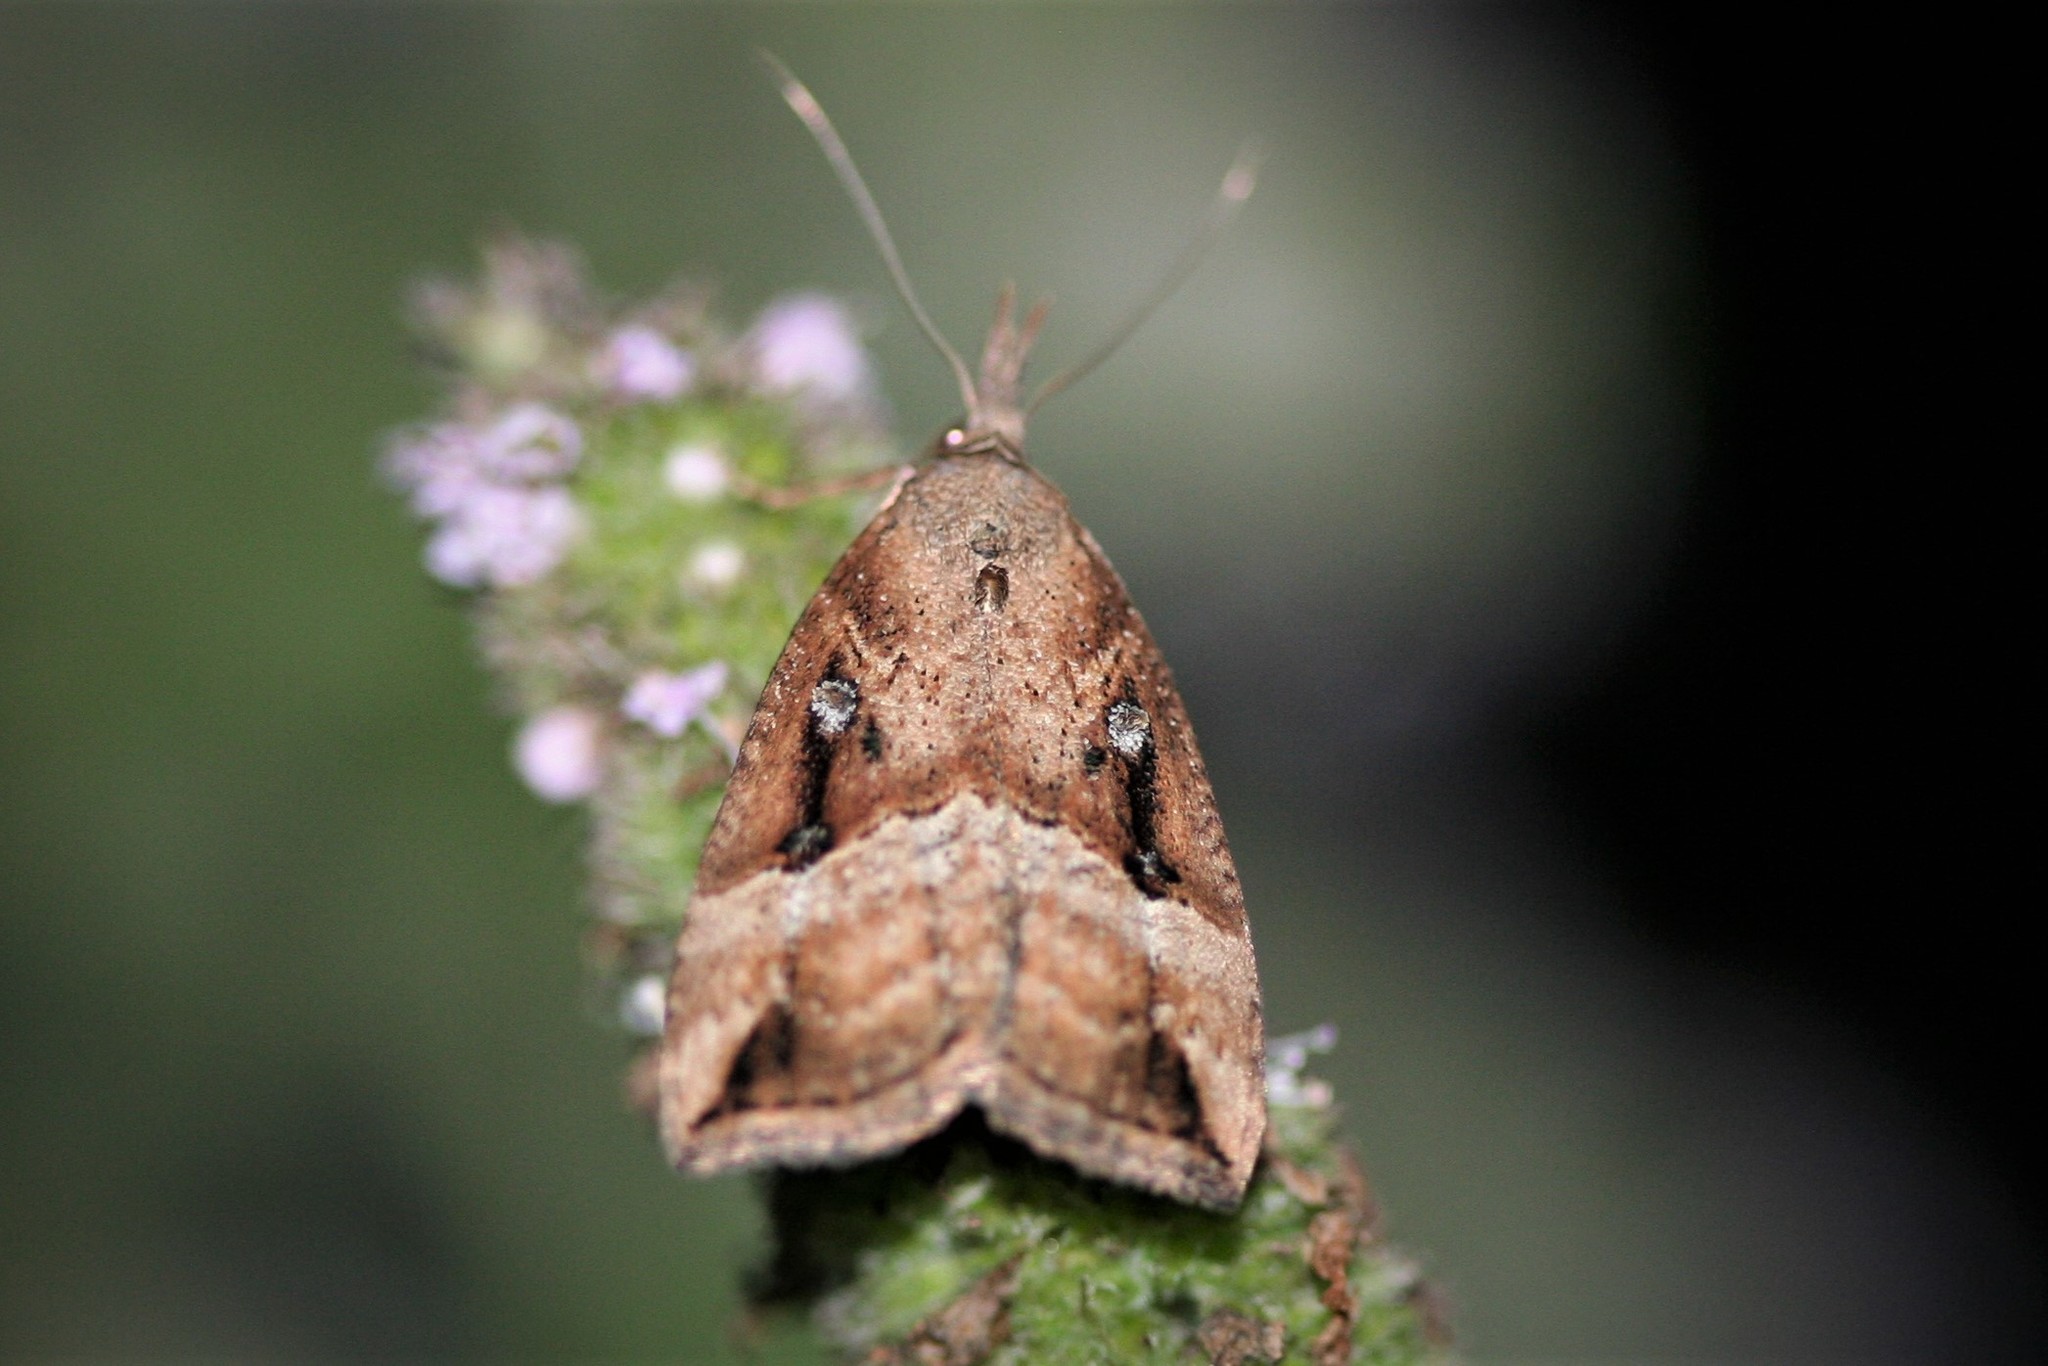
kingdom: Animalia
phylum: Arthropoda
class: Insecta
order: Lepidoptera
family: Erebidae
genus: Hypena
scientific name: Hypena rostralis
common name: Buttoned snout
